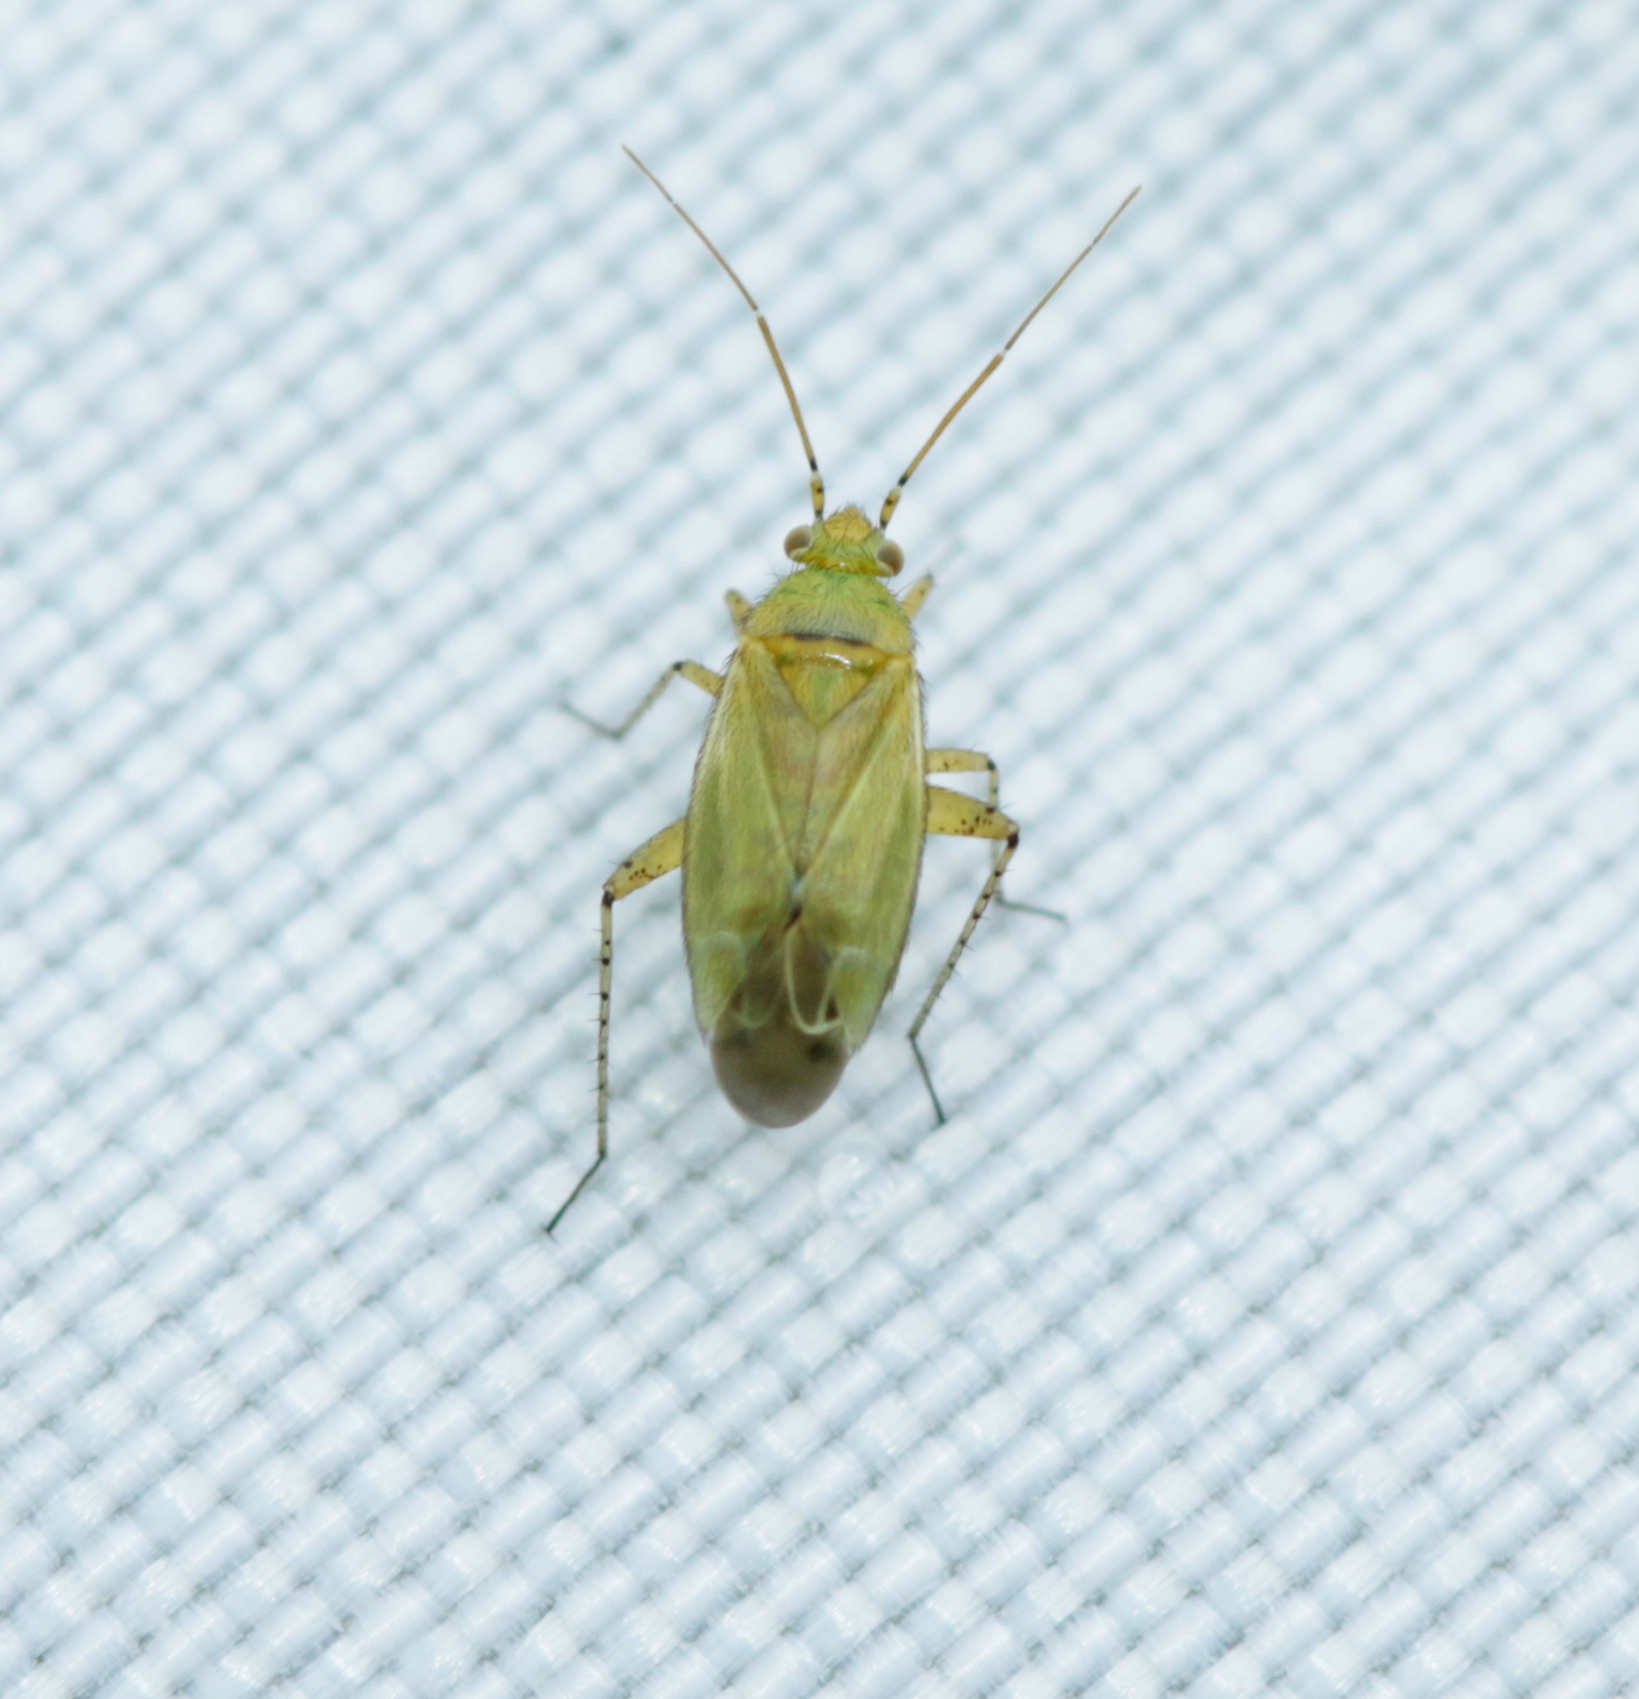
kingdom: Animalia
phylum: Arthropoda
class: Insecta
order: Hemiptera
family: Miridae
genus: Plagiognathus
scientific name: Plagiognathus chrysanthemi
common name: Plant bug
